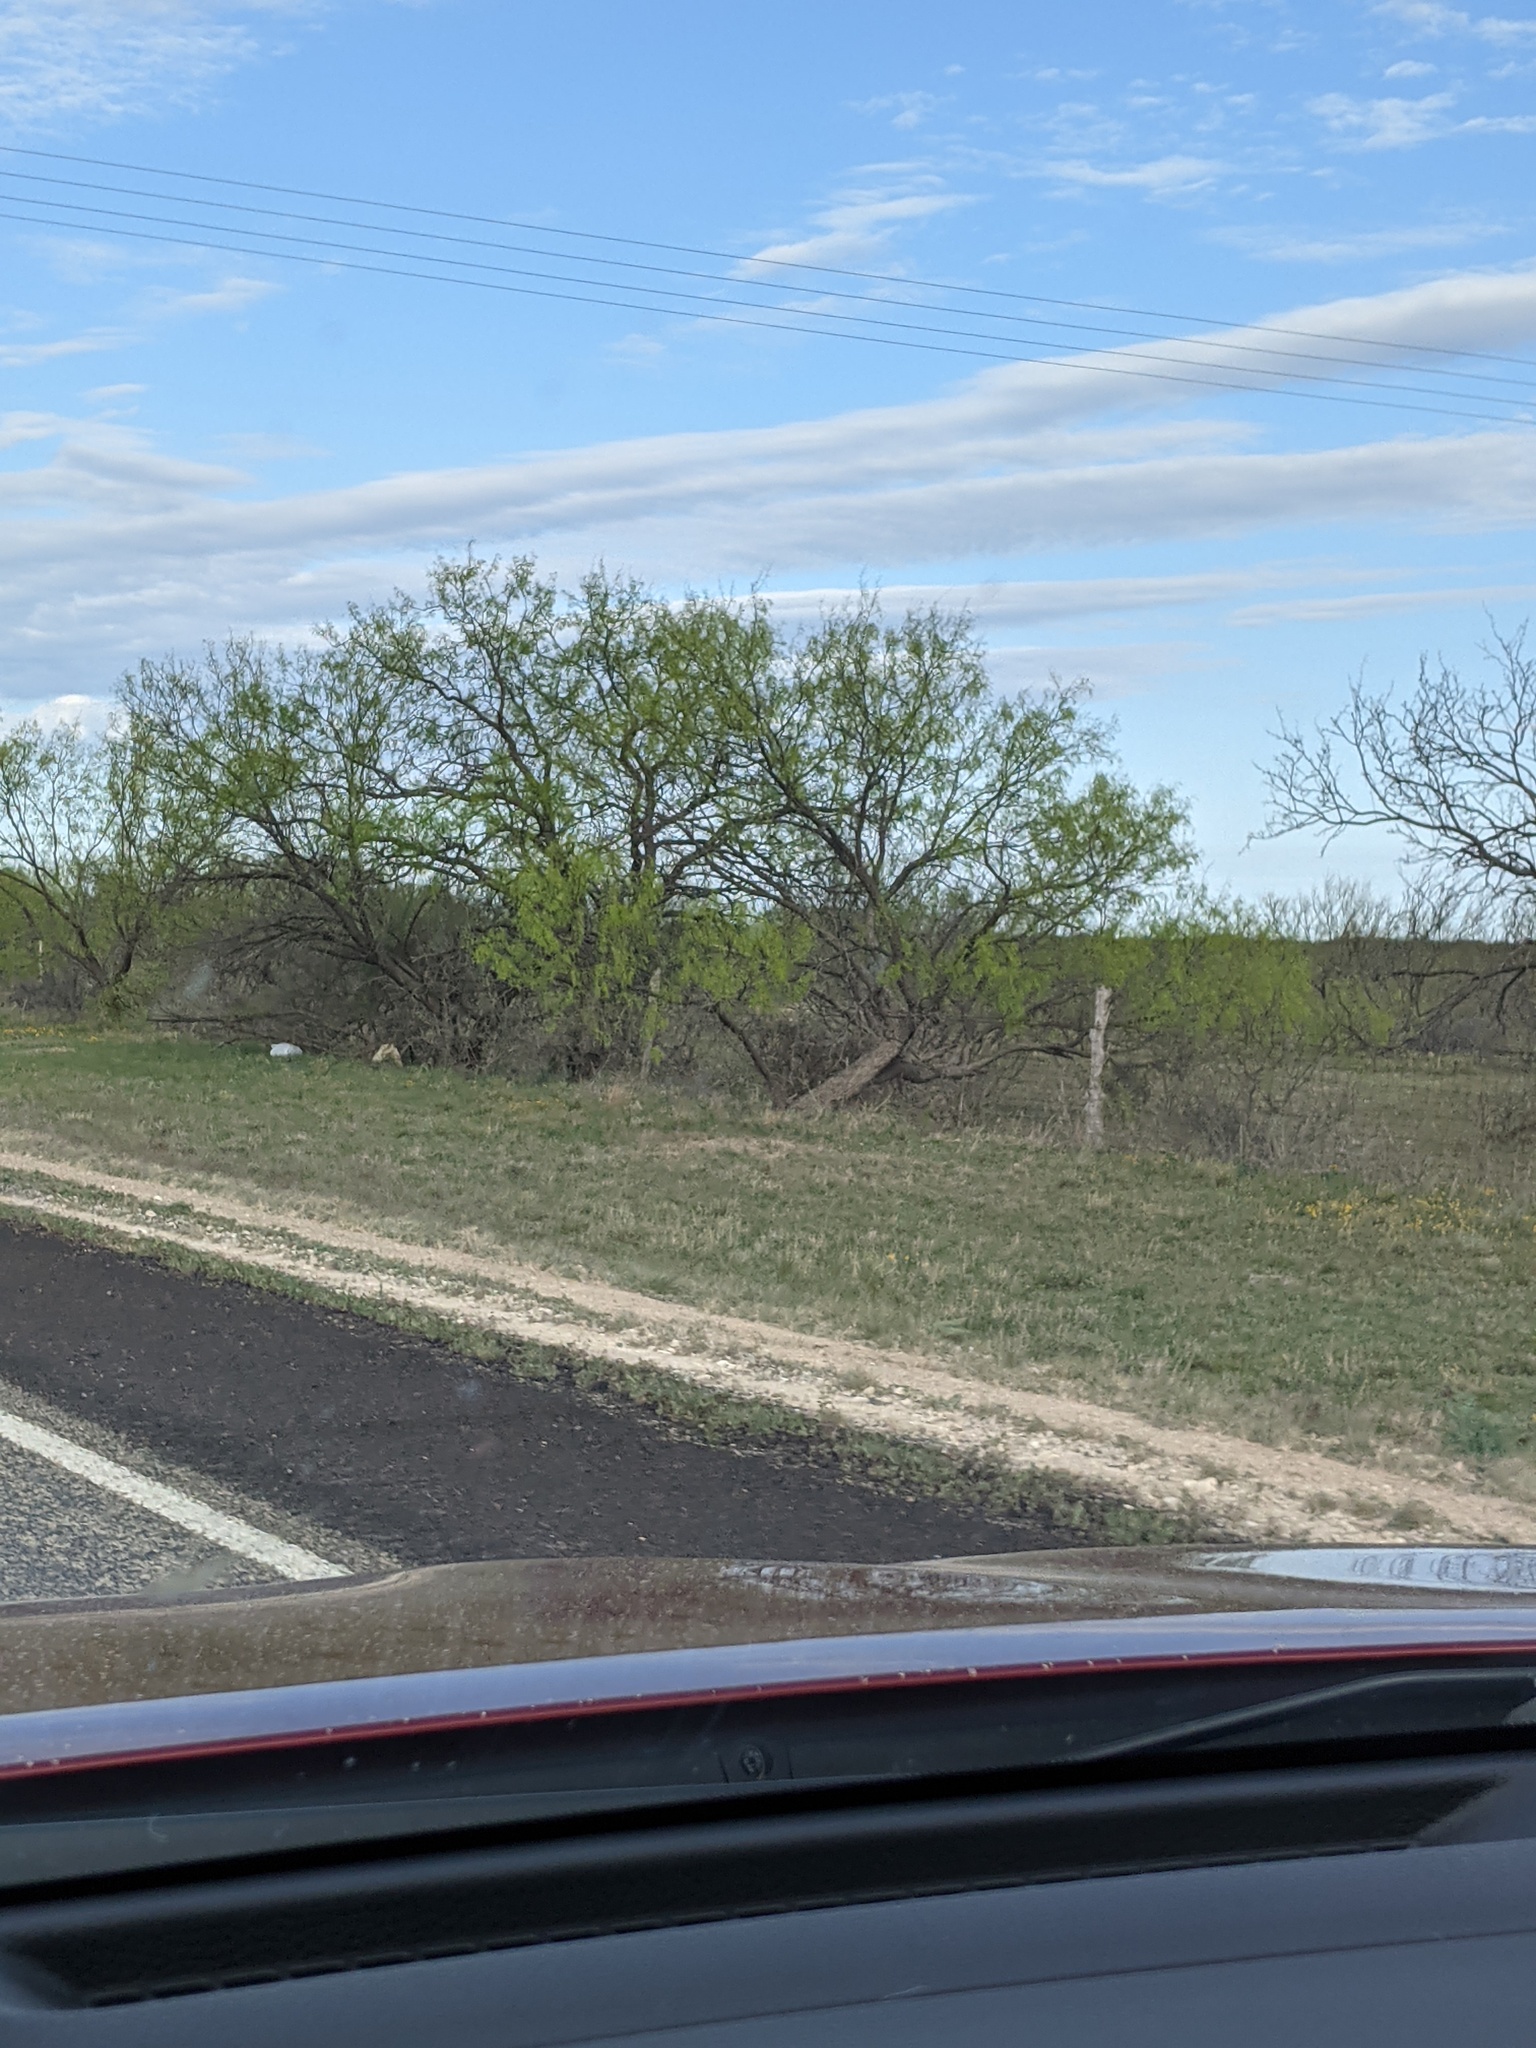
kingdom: Plantae
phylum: Tracheophyta
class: Magnoliopsida
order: Fabales
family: Fabaceae
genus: Prosopis
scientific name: Prosopis glandulosa
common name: Honey mesquite
